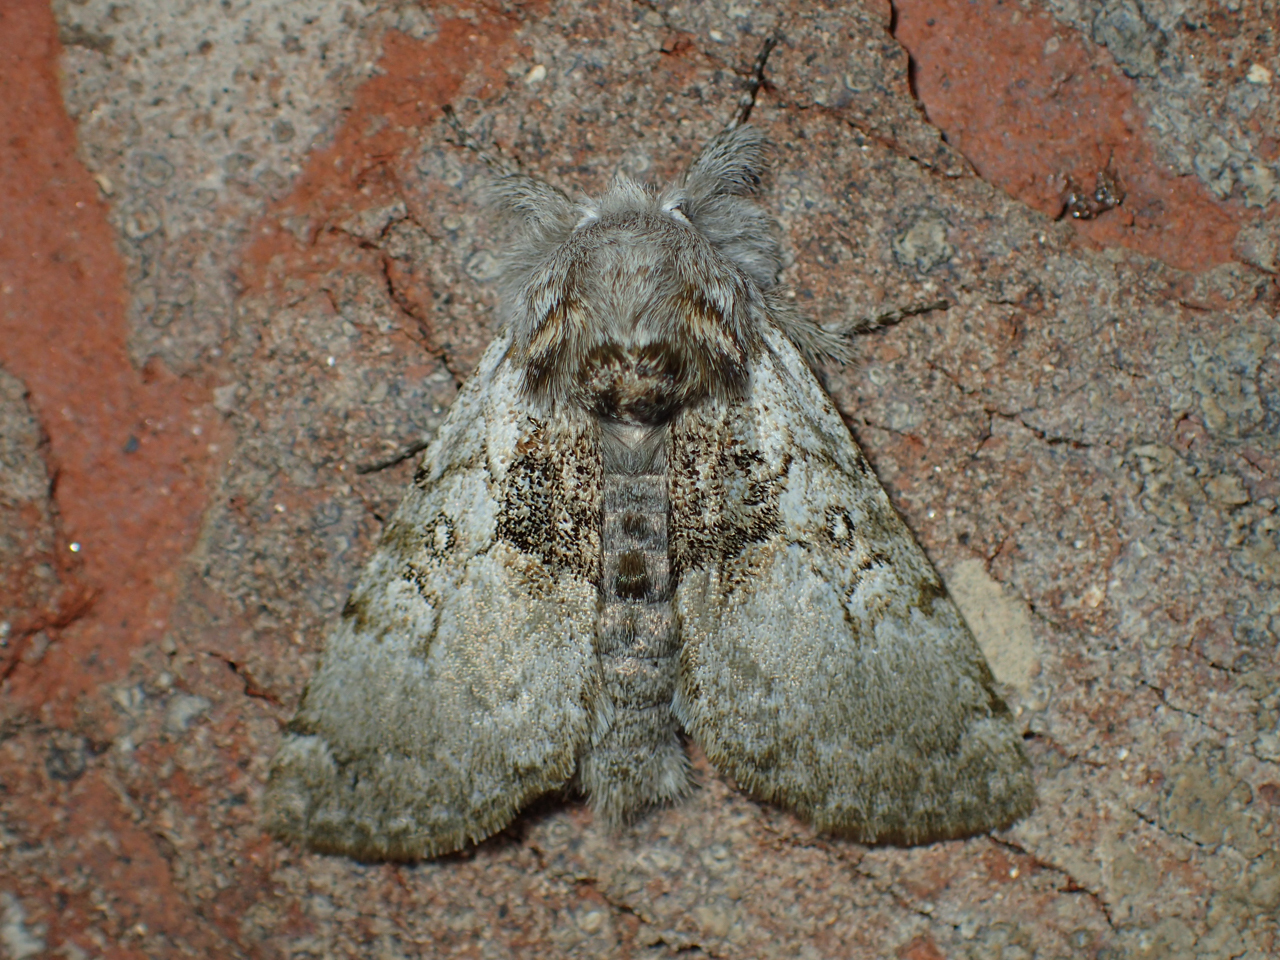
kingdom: Animalia
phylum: Arthropoda
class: Insecta
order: Lepidoptera
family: Noctuidae
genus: Colocasia
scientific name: Colocasia flavicornis
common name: Saddled yellowhorn
